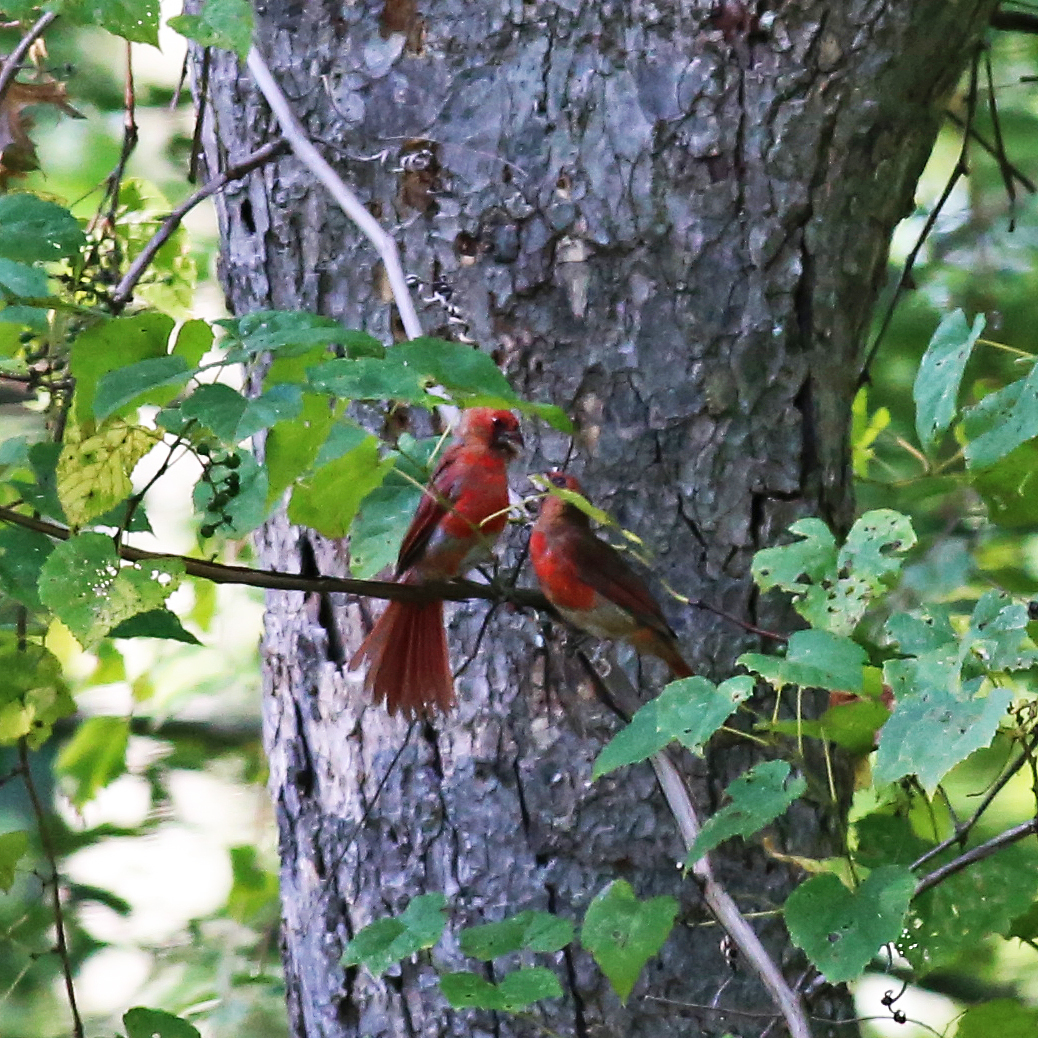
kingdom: Animalia
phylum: Chordata
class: Aves
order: Passeriformes
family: Cardinalidae
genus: Cardinalis
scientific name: Cardinalis cardinalis
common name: Northern cardinal
